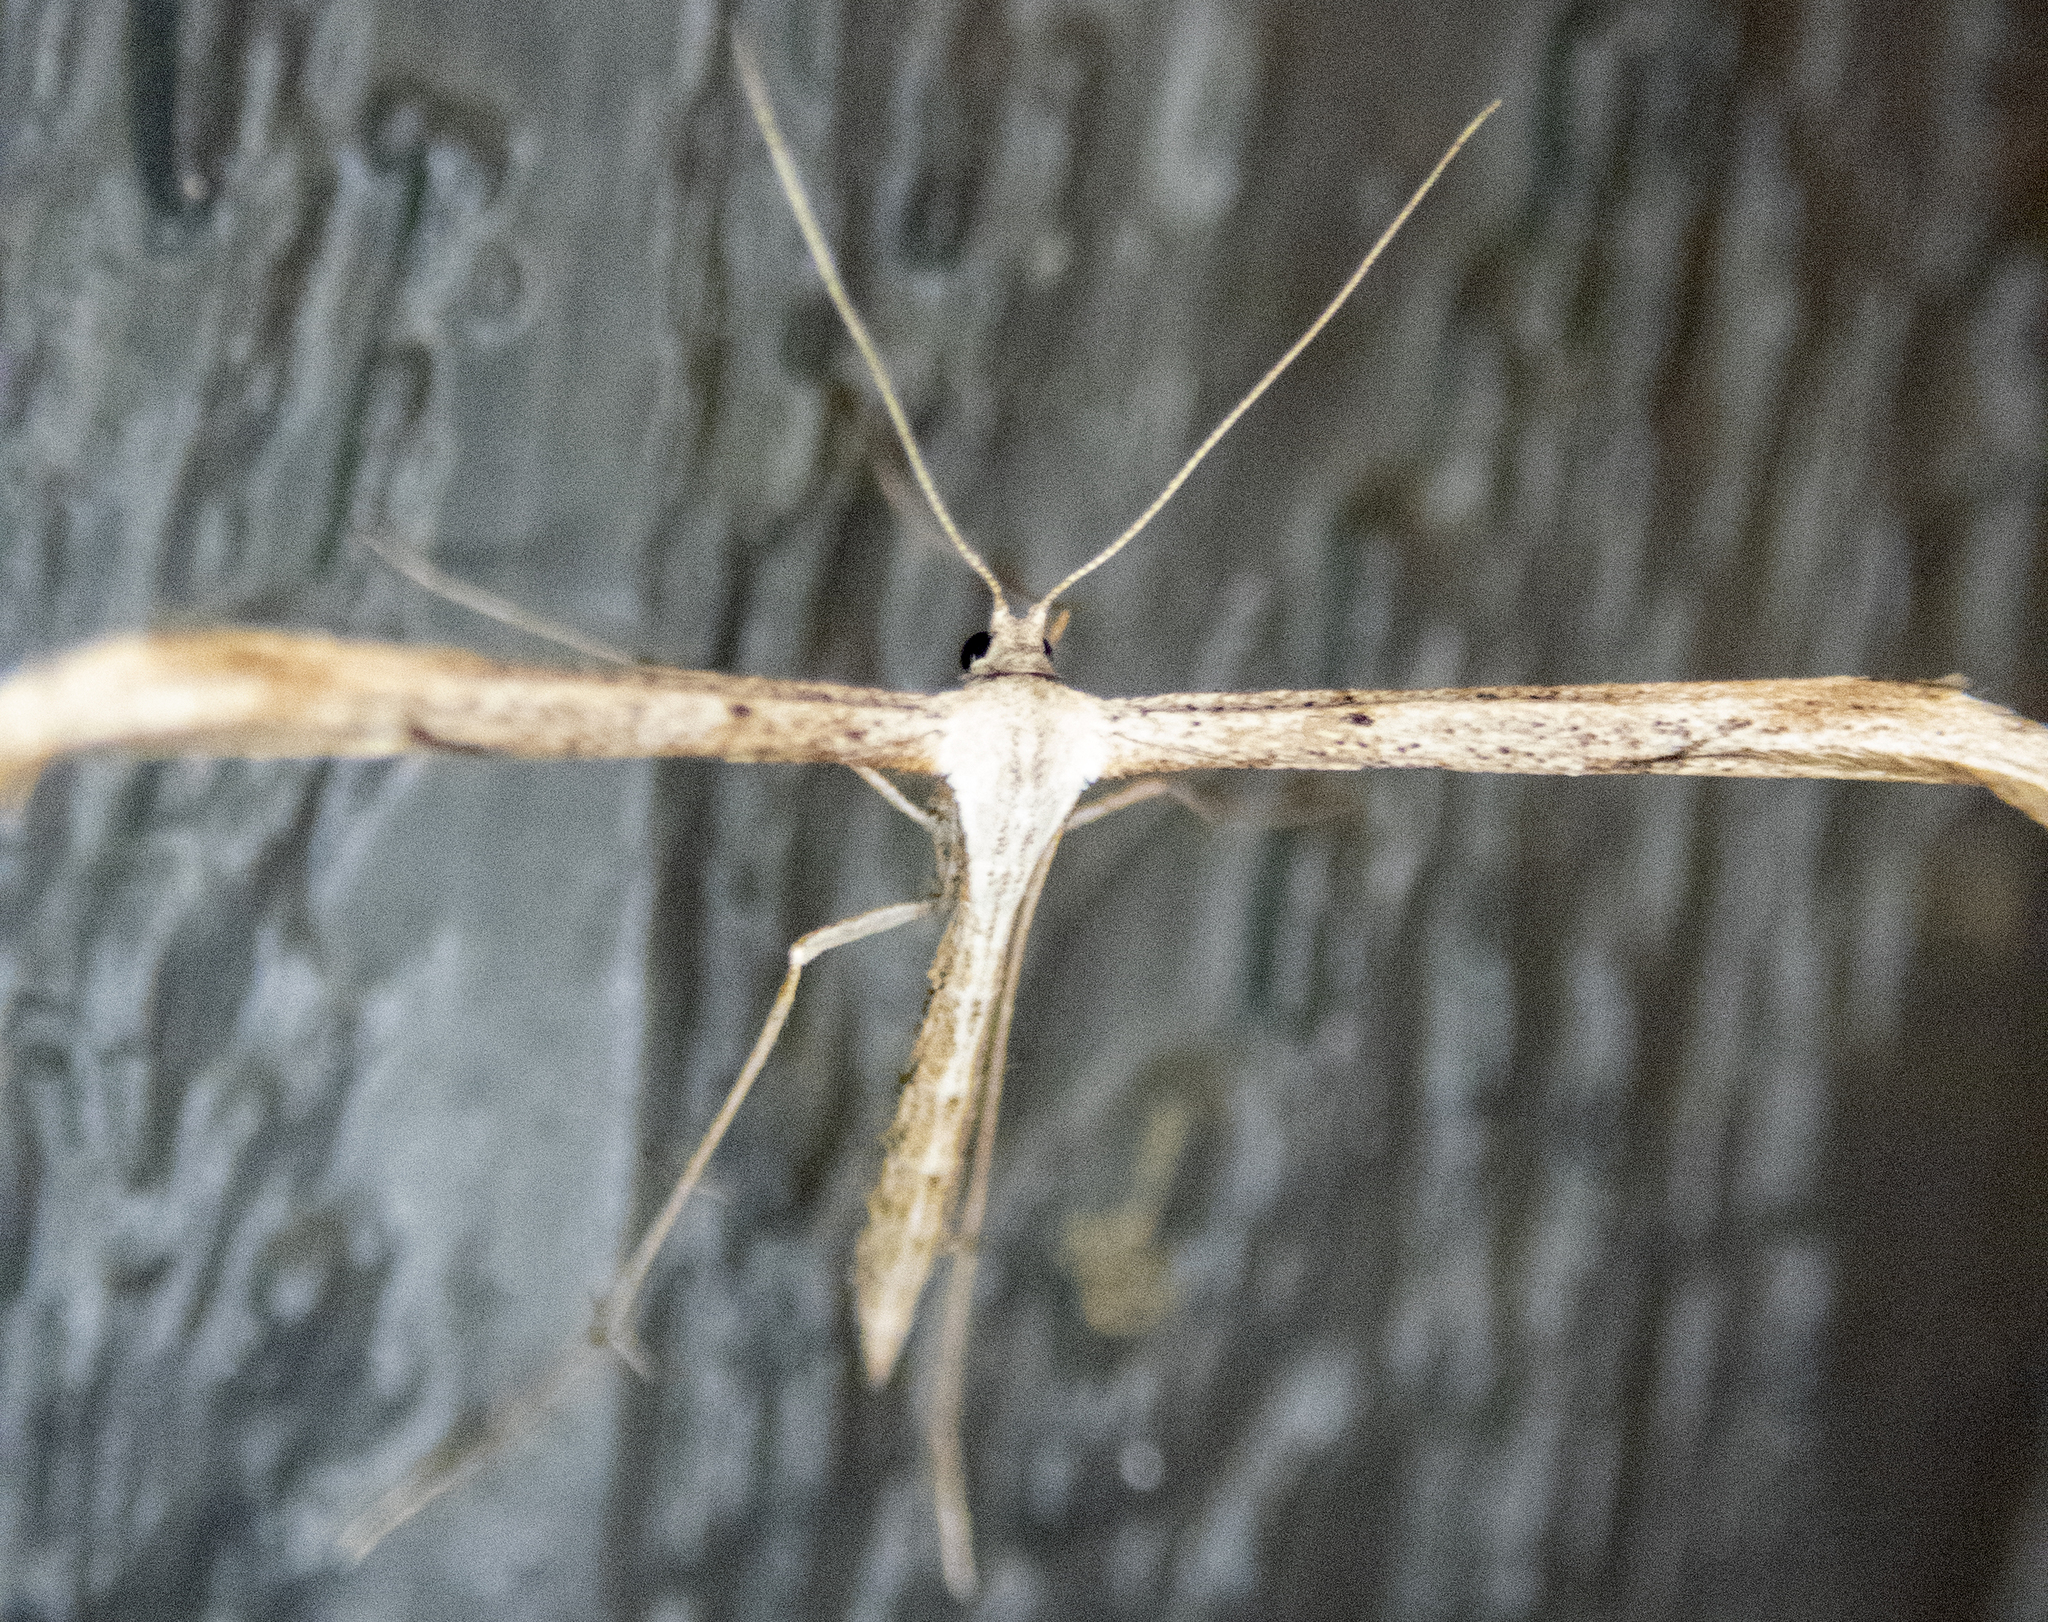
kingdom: Animalia
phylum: Arthropoda
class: Insecta
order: Lepidoptera
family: Pterophoridae
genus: Emmelina
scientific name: Emmelina monodactyla
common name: Common plume
